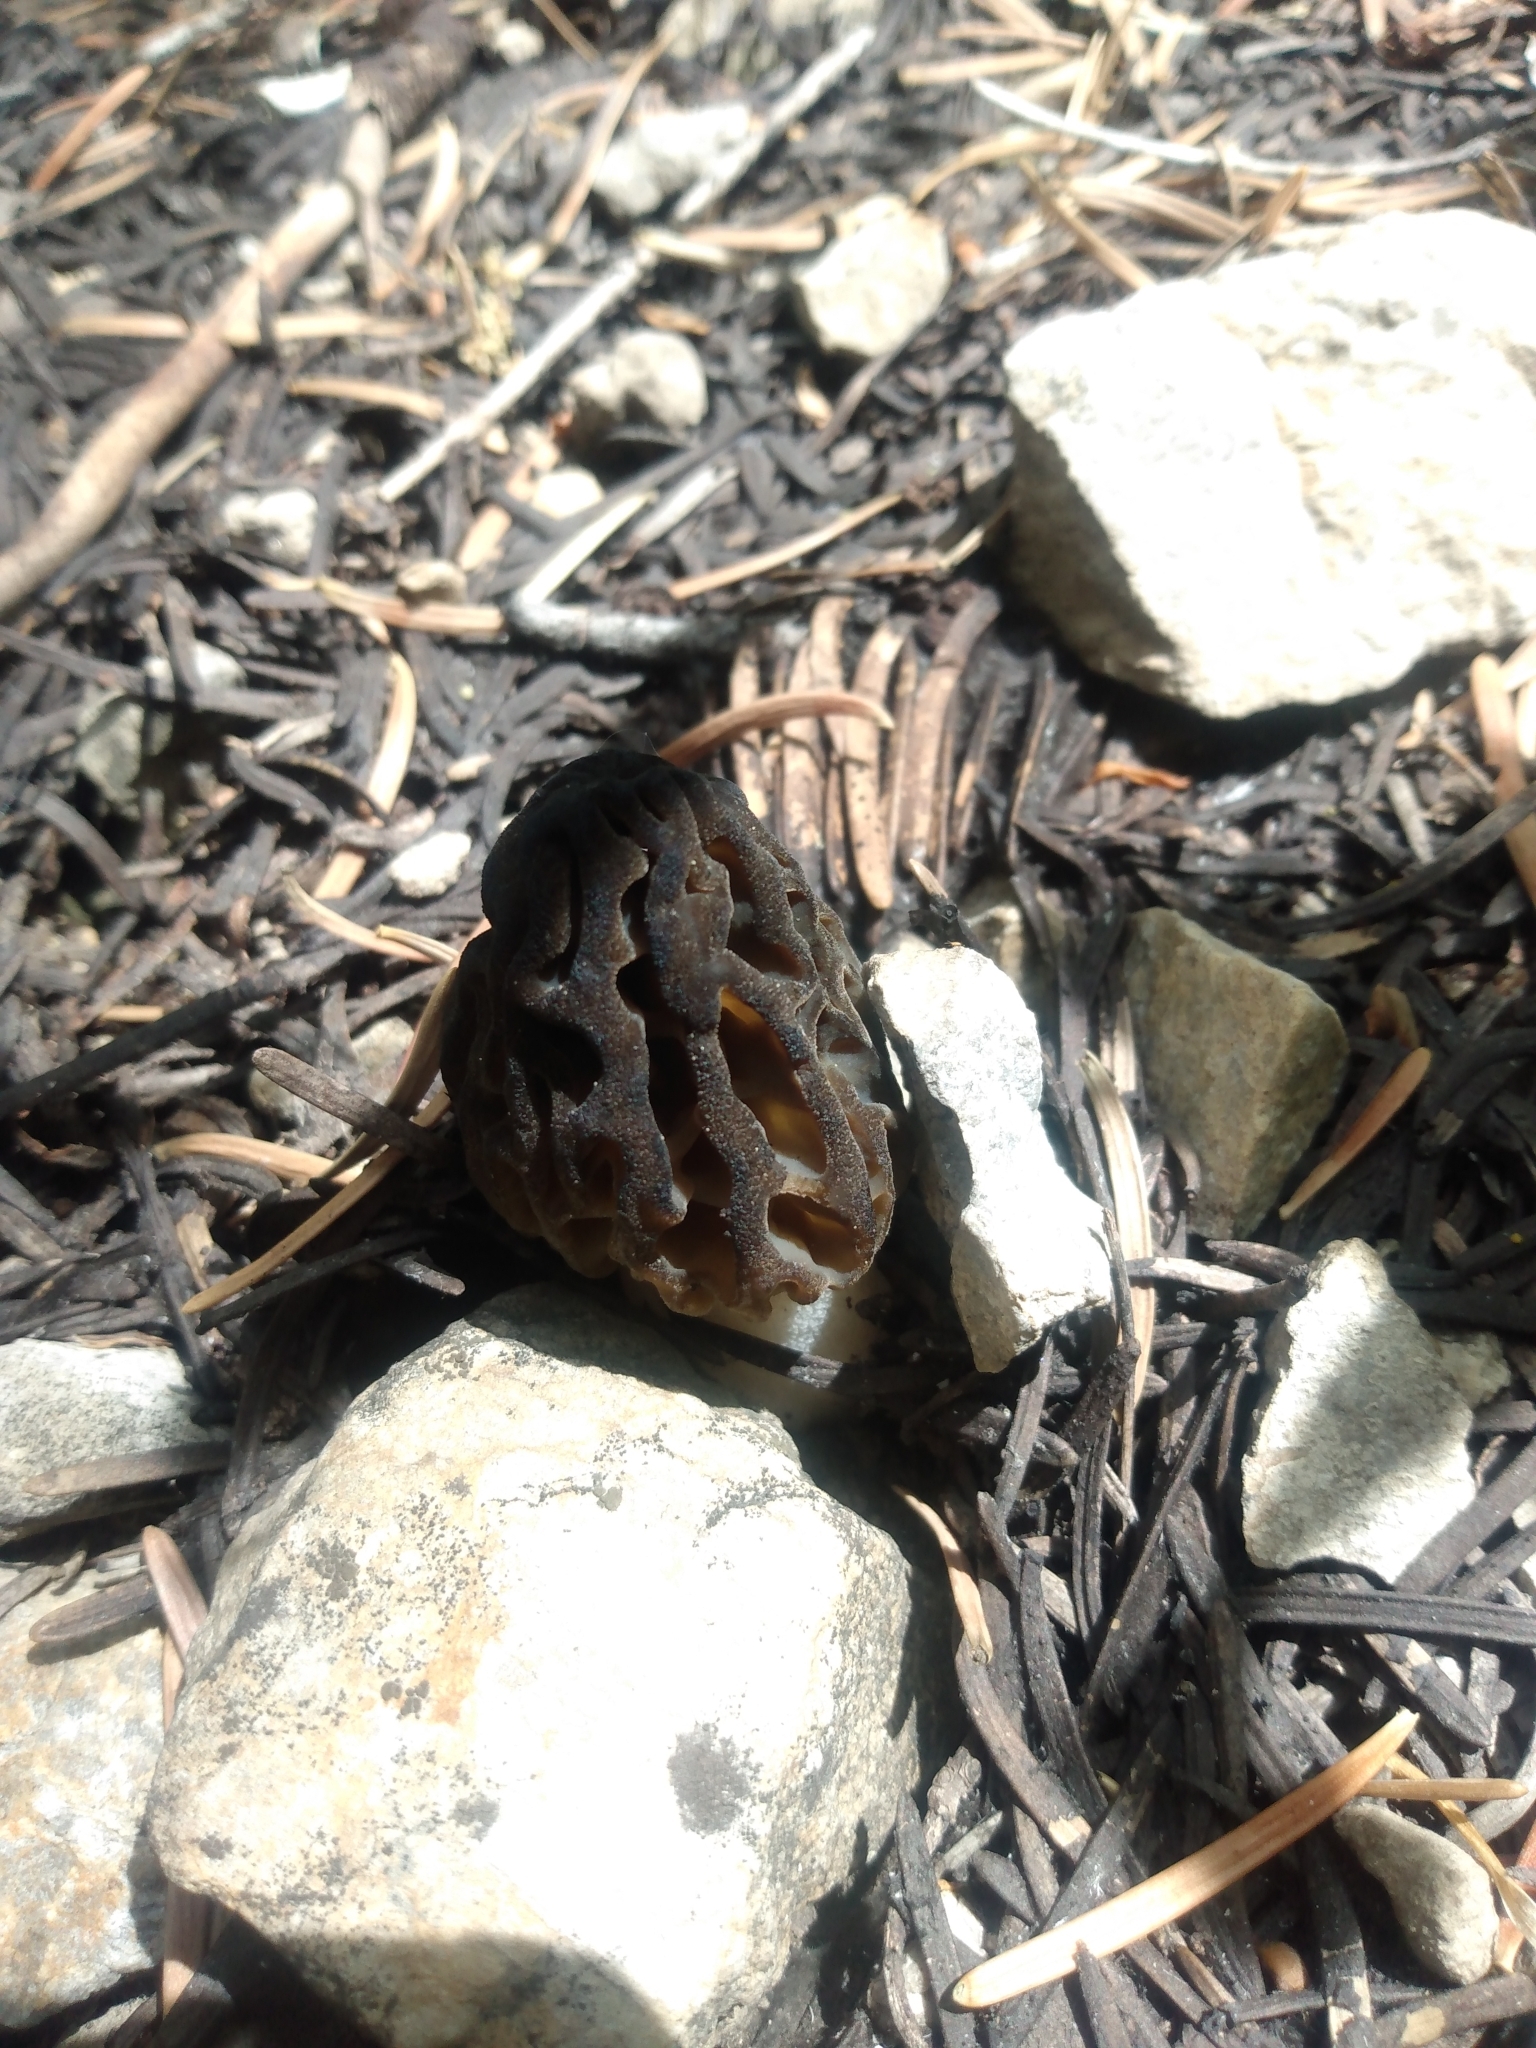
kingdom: Fungi
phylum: Ascomycota
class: Pezizomycetes
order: Pezizales
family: Morchellaceae
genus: Morchella
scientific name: Morchella snyderi
